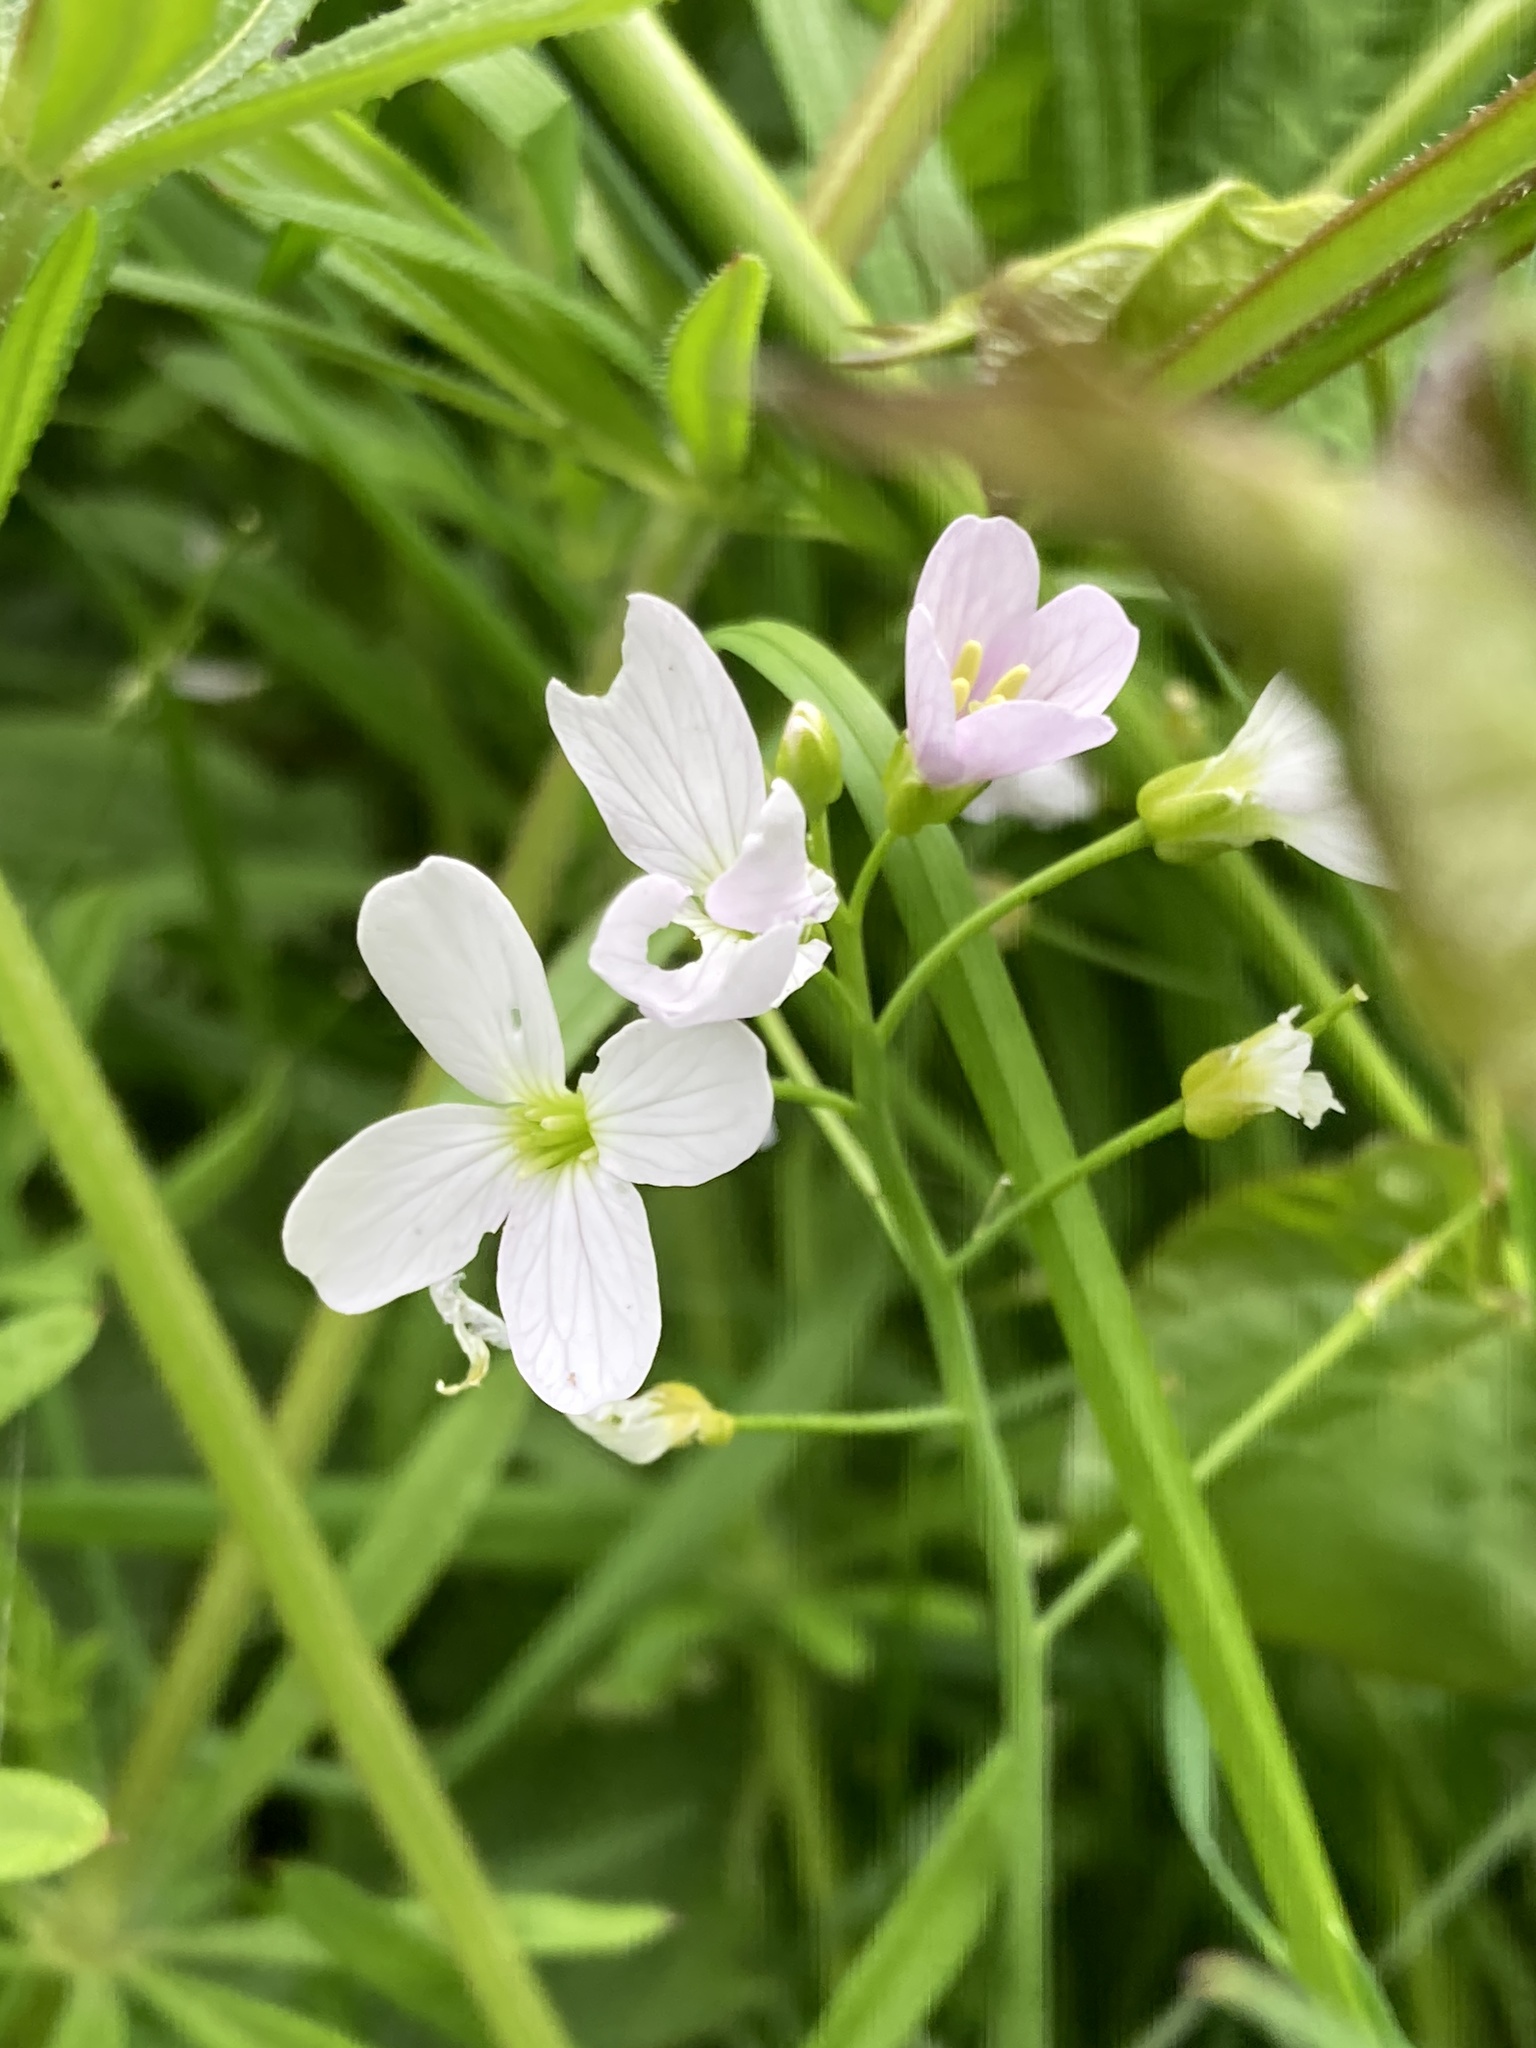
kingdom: Plantae
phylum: Tracheophyta
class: Magnoliopsida
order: Brassicales
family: Brassicaceae
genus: Cardamine
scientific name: Cardamine pratensis
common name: Cuckoo flower
